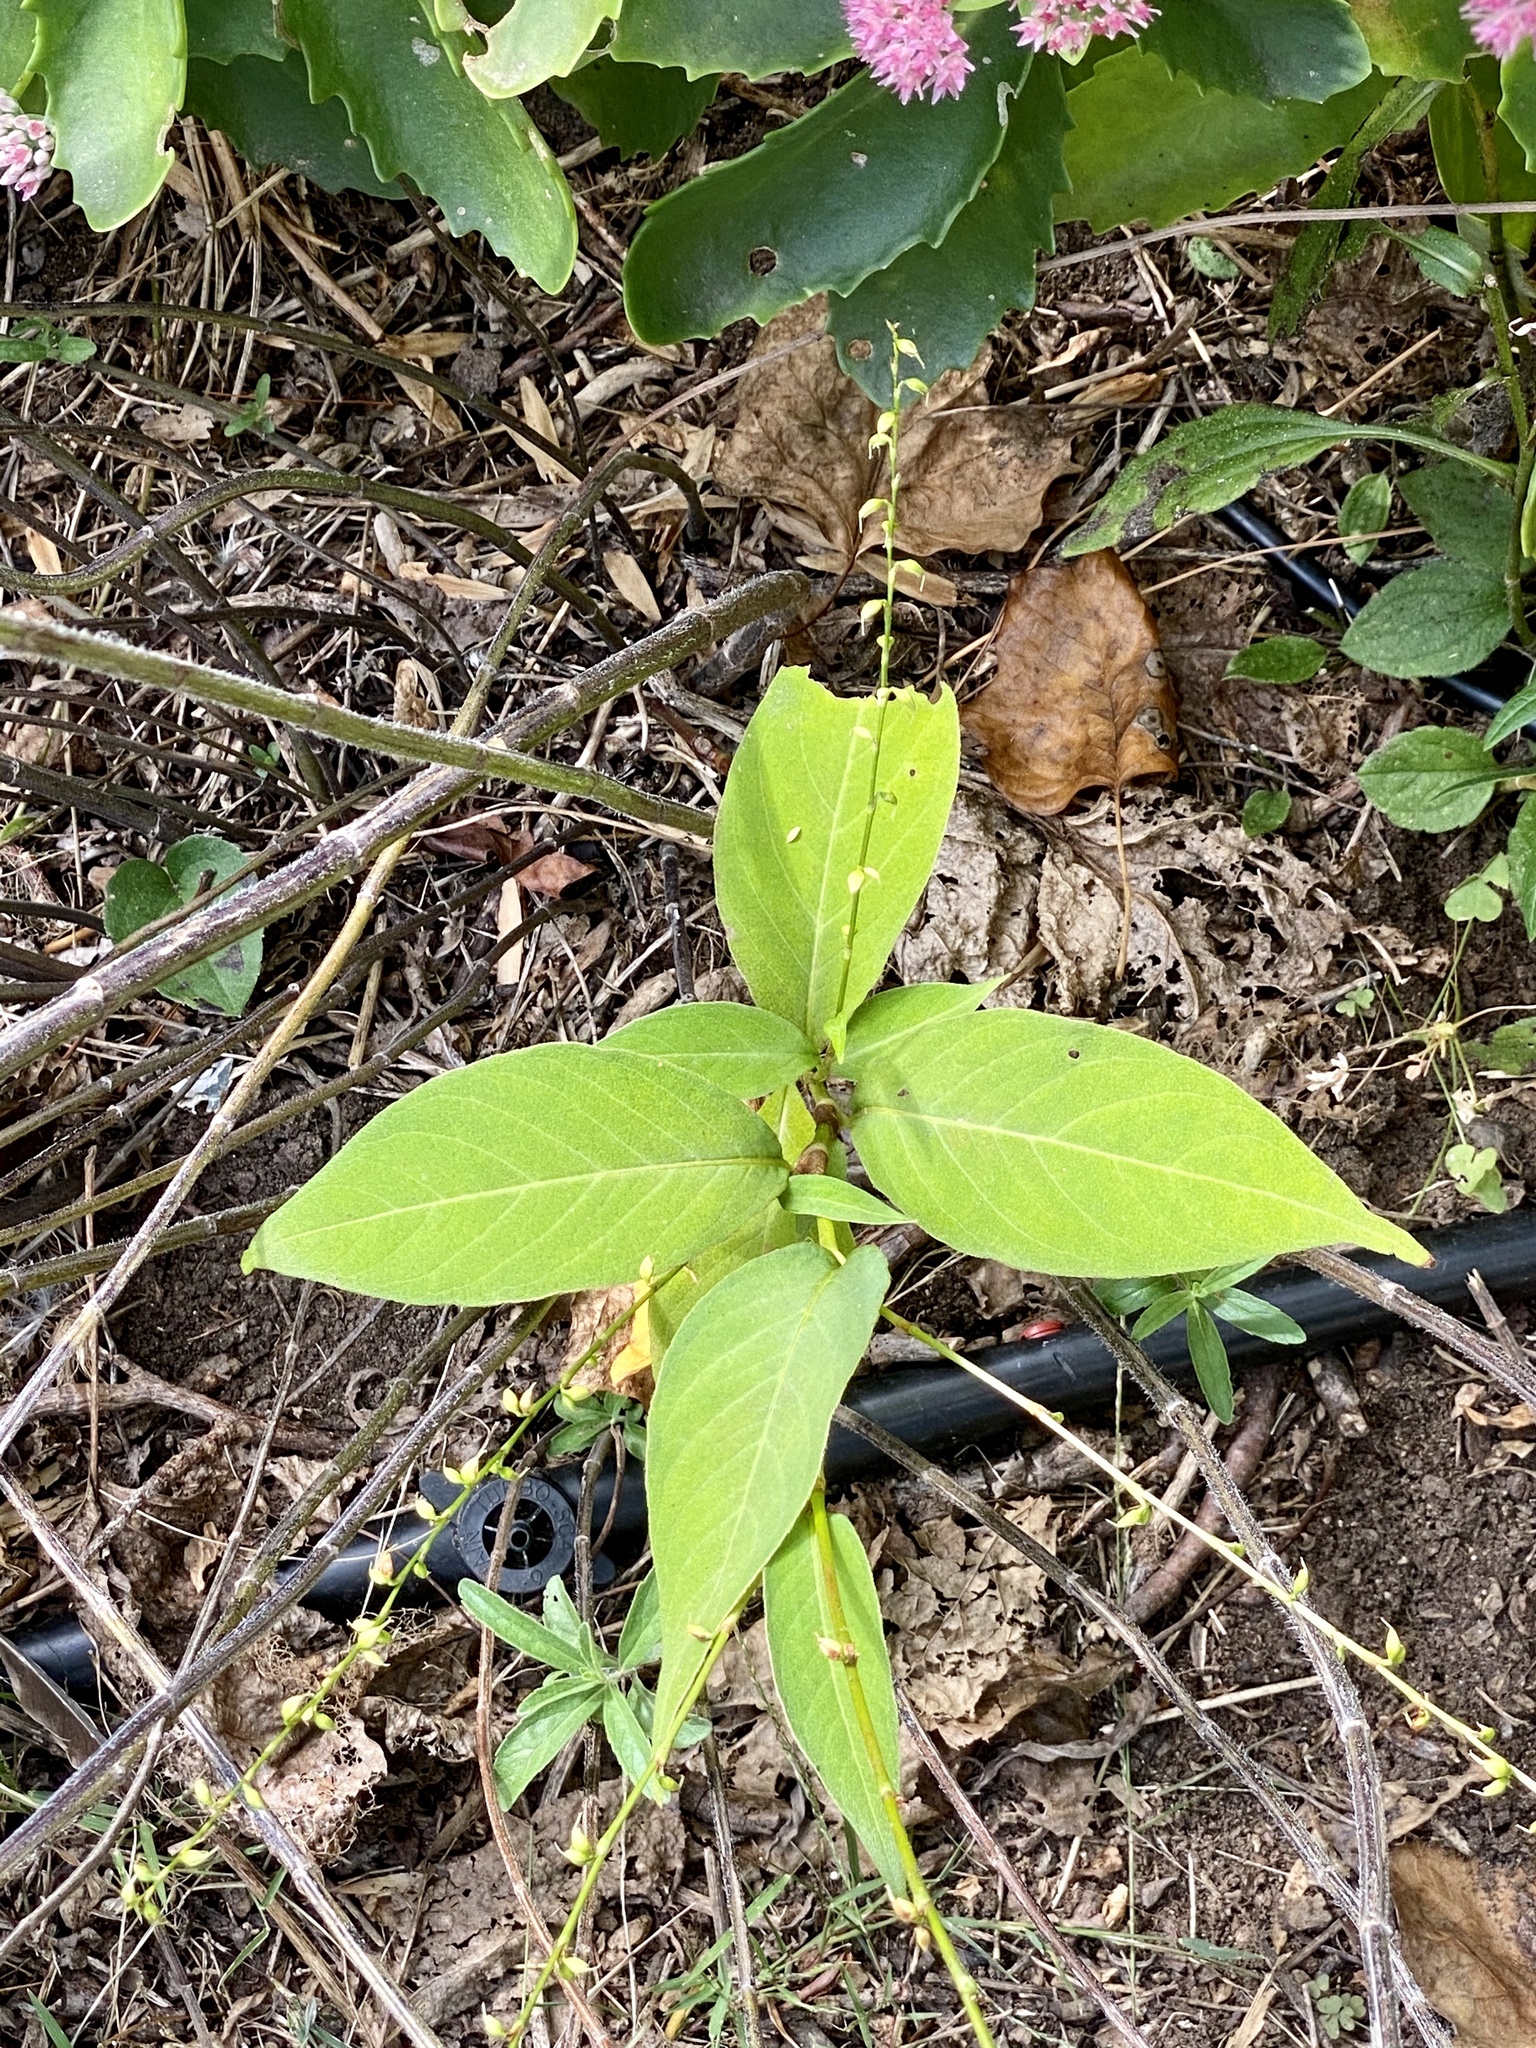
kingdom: Plantae
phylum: Tracheophyta
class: Magnoliopsida
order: Caryophyllales
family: Polygonaceae
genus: Persicaria
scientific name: Persicaria virginiana
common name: Jumpseed
